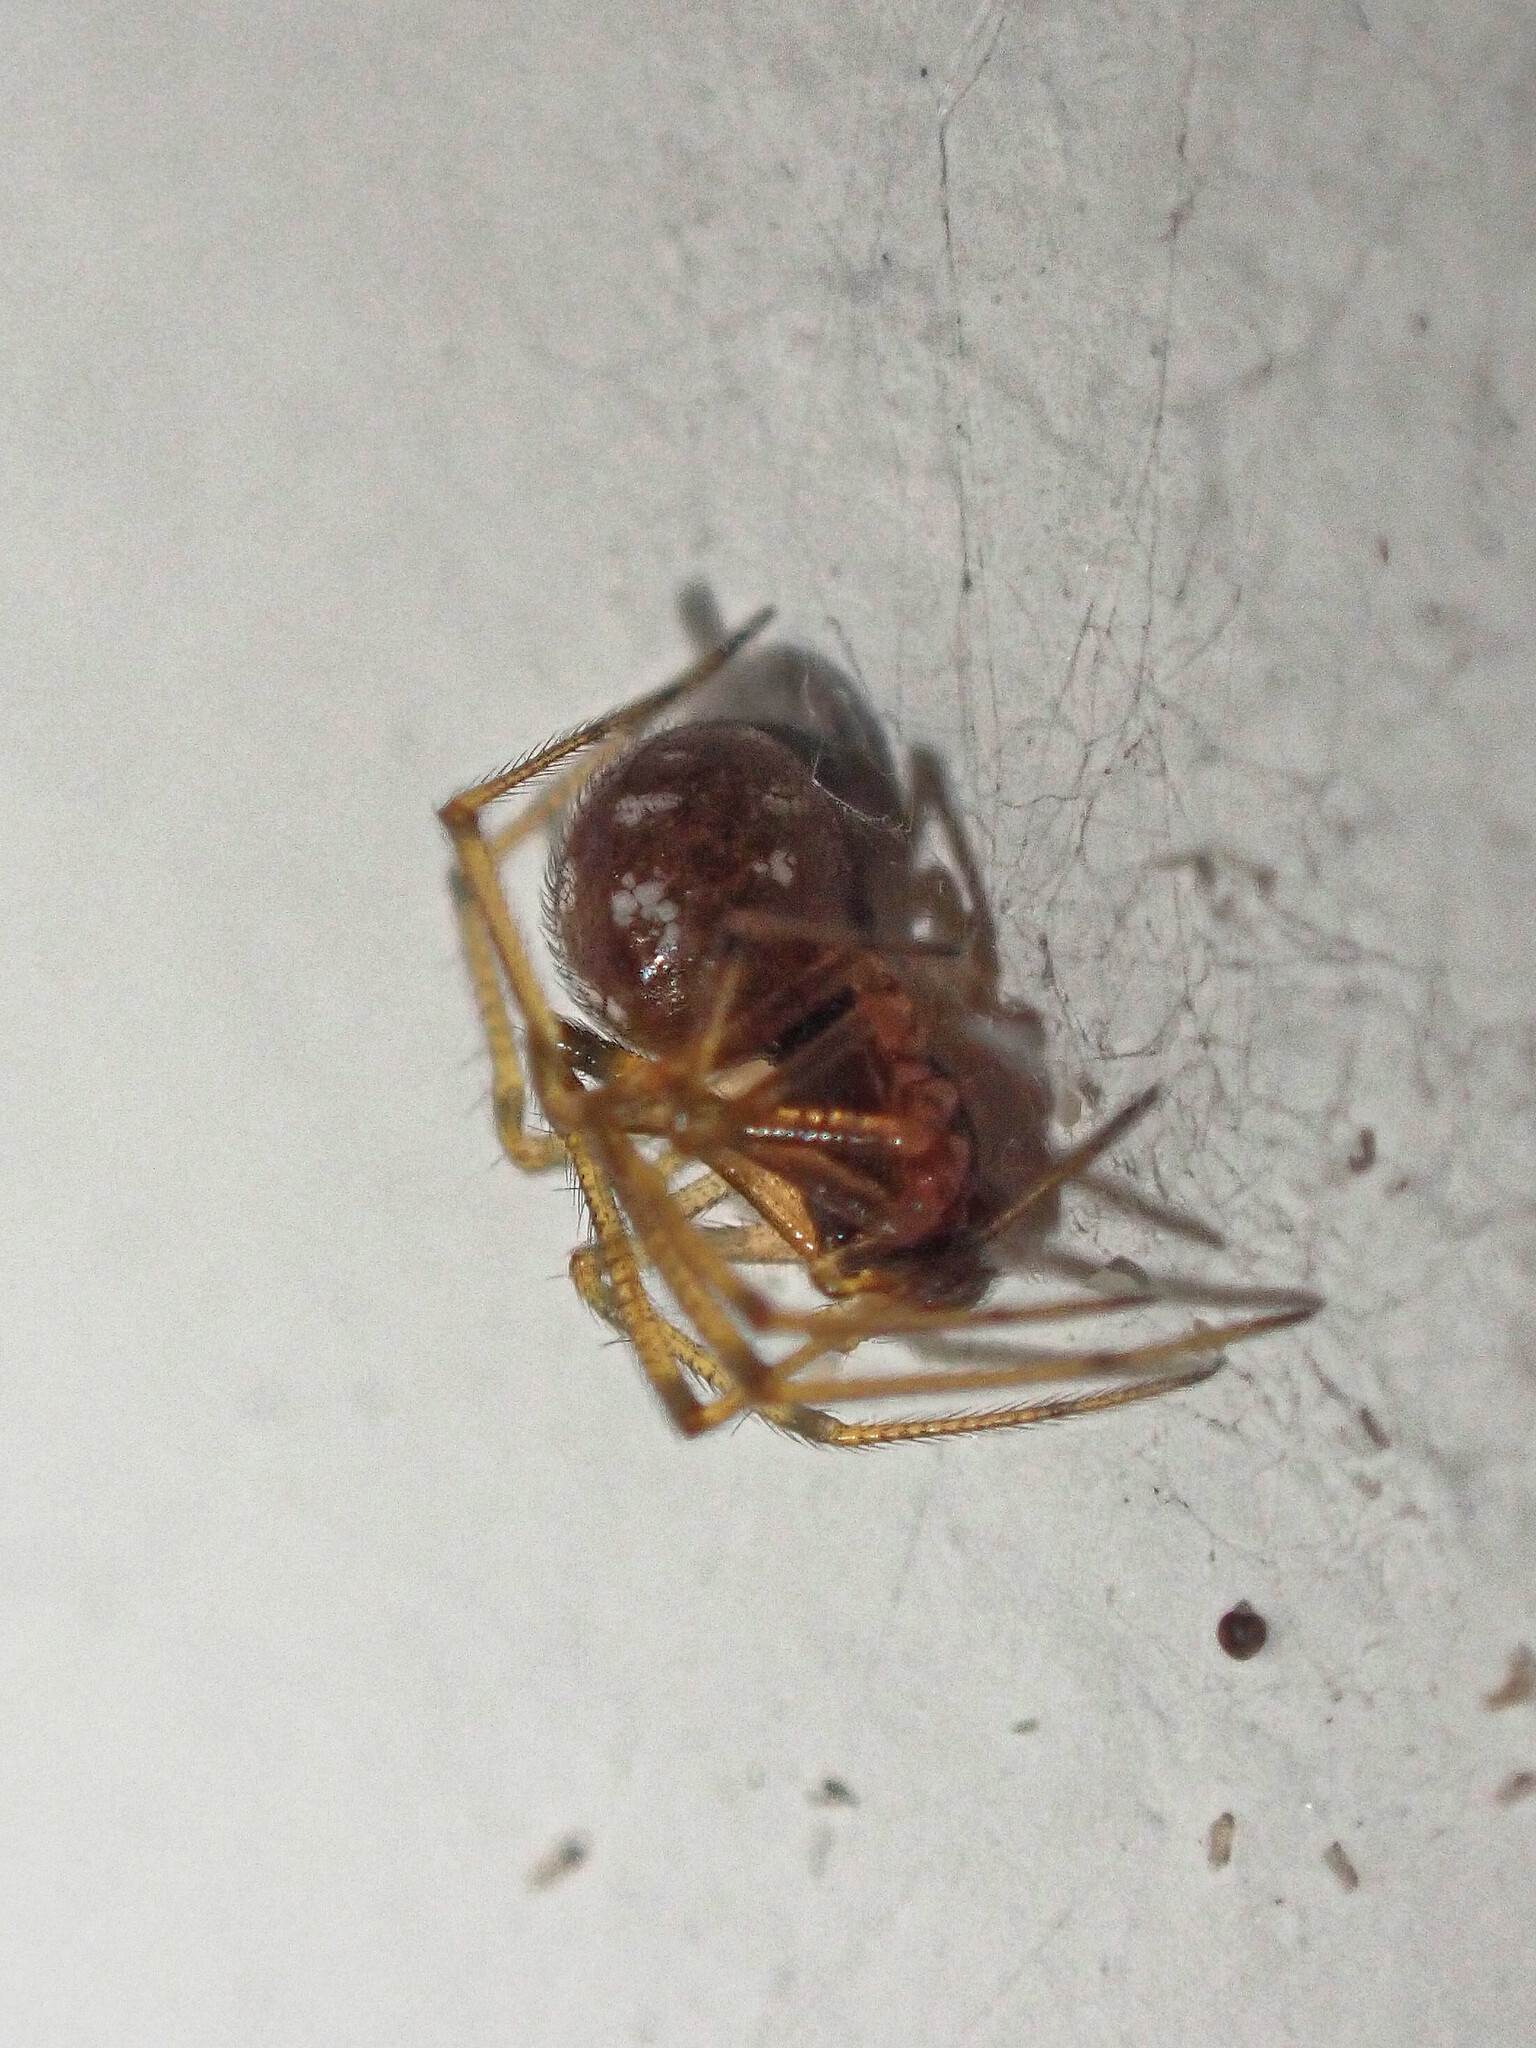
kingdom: Animalia
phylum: Arthropoda
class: Arachnida
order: Araneae
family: Theridiidae
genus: Steatoda
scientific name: Steatoda triangulosa
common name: Triangulate bud spider
